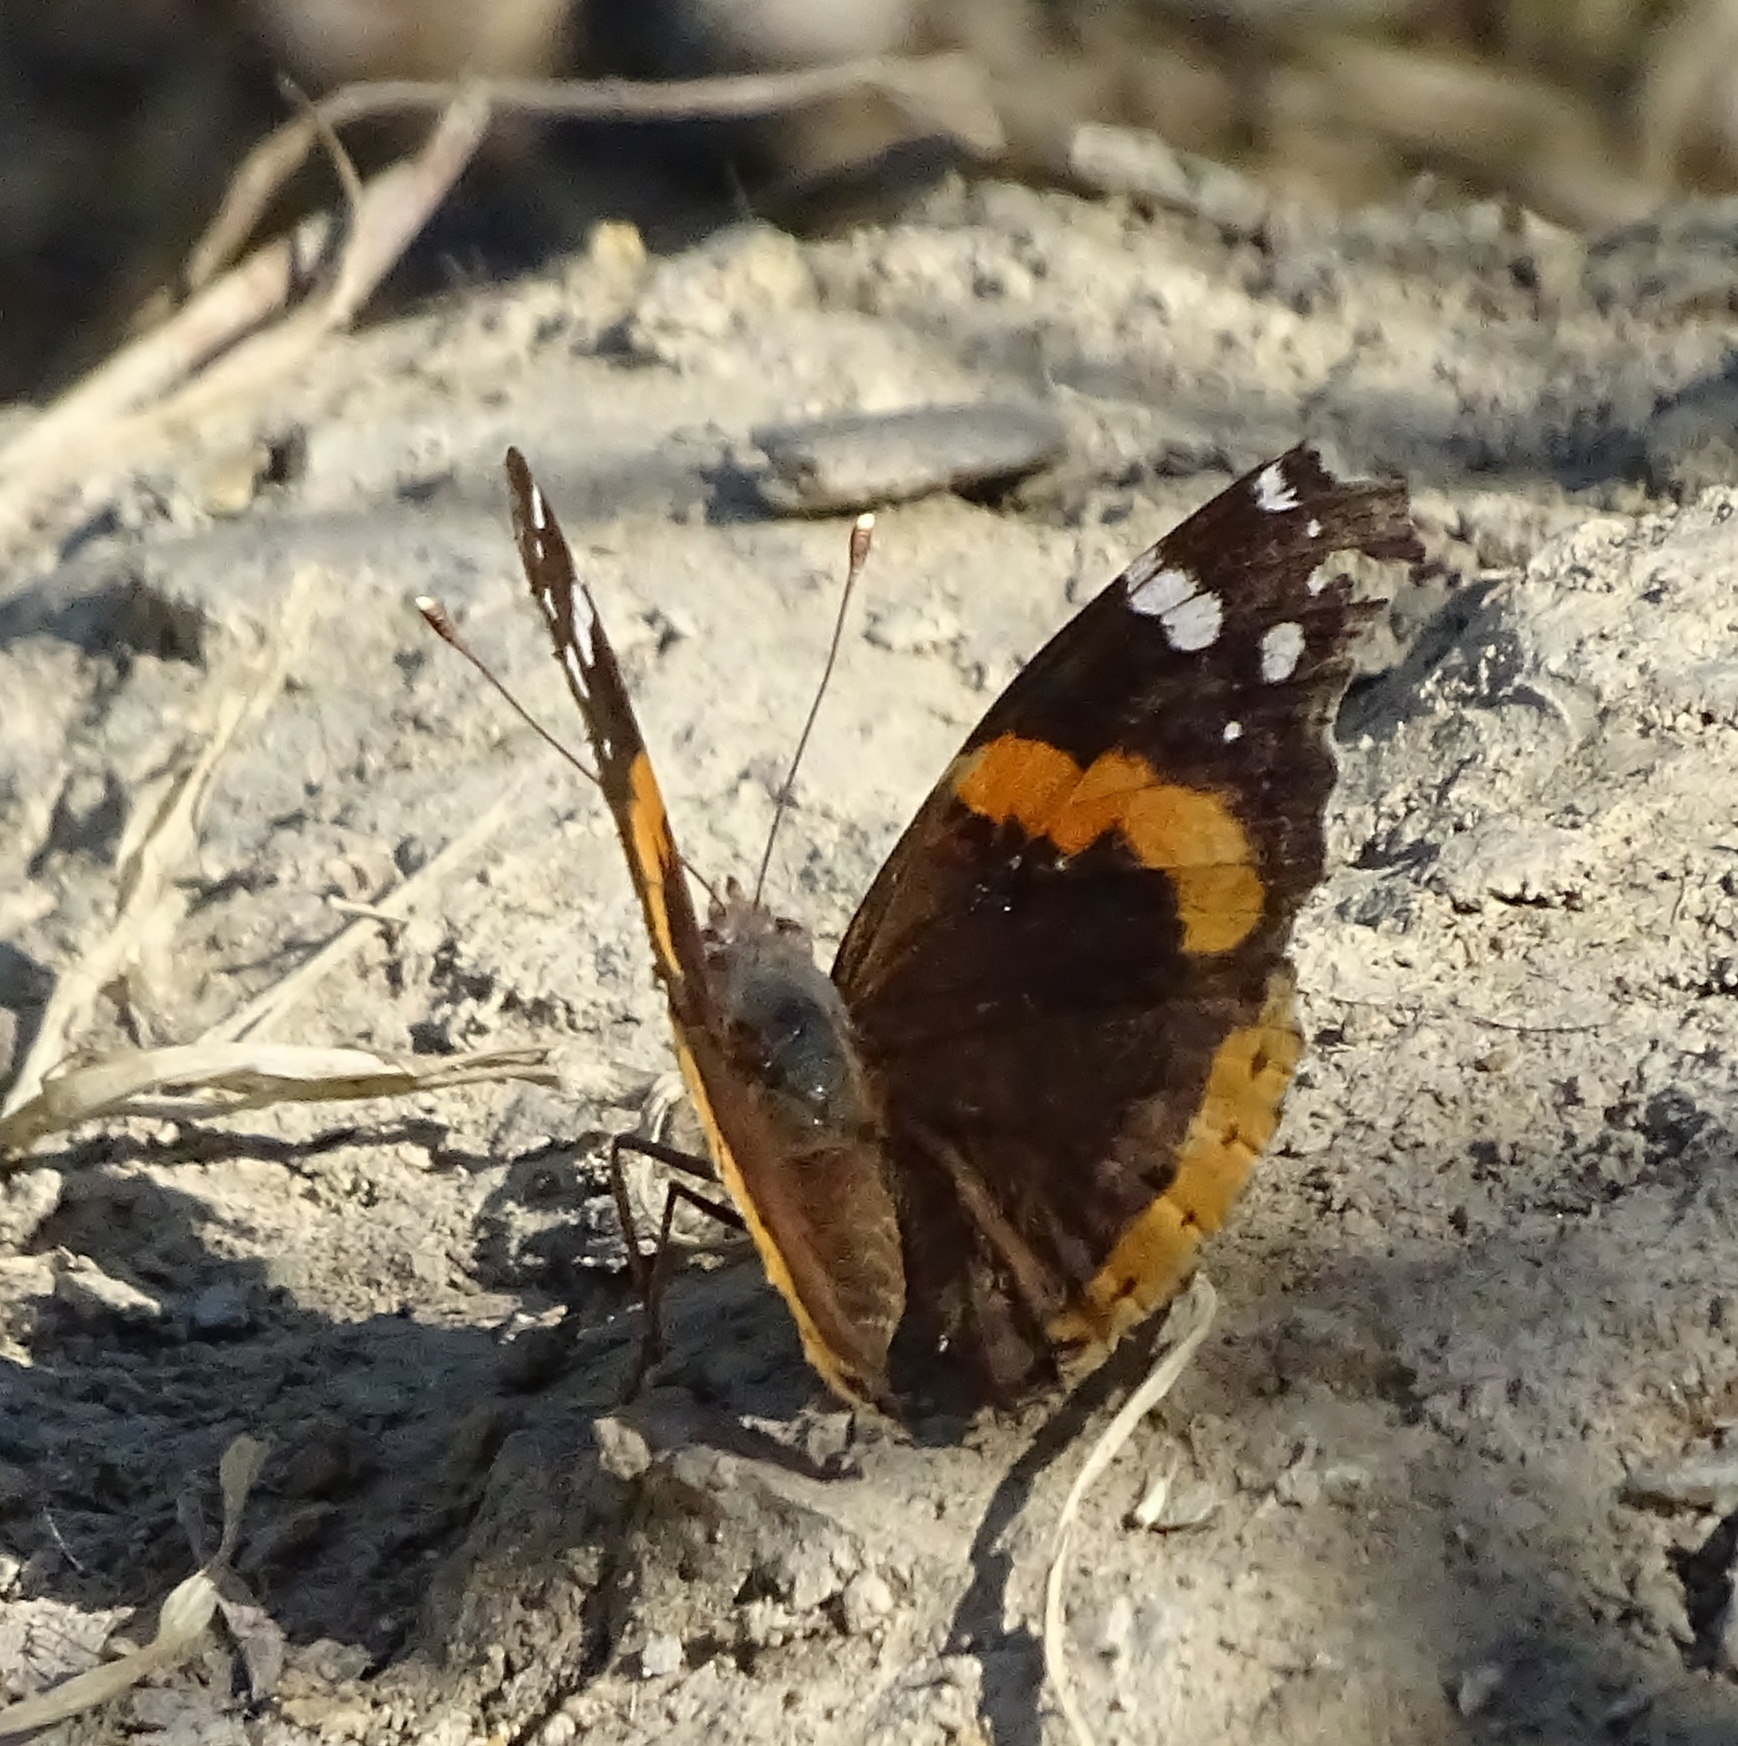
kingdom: Animalia
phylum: Arthropoda
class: Insecta
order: Lepidoptera
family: Nymphalidae
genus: Vanessa
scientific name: Vanessa atalanta
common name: Red admiral
